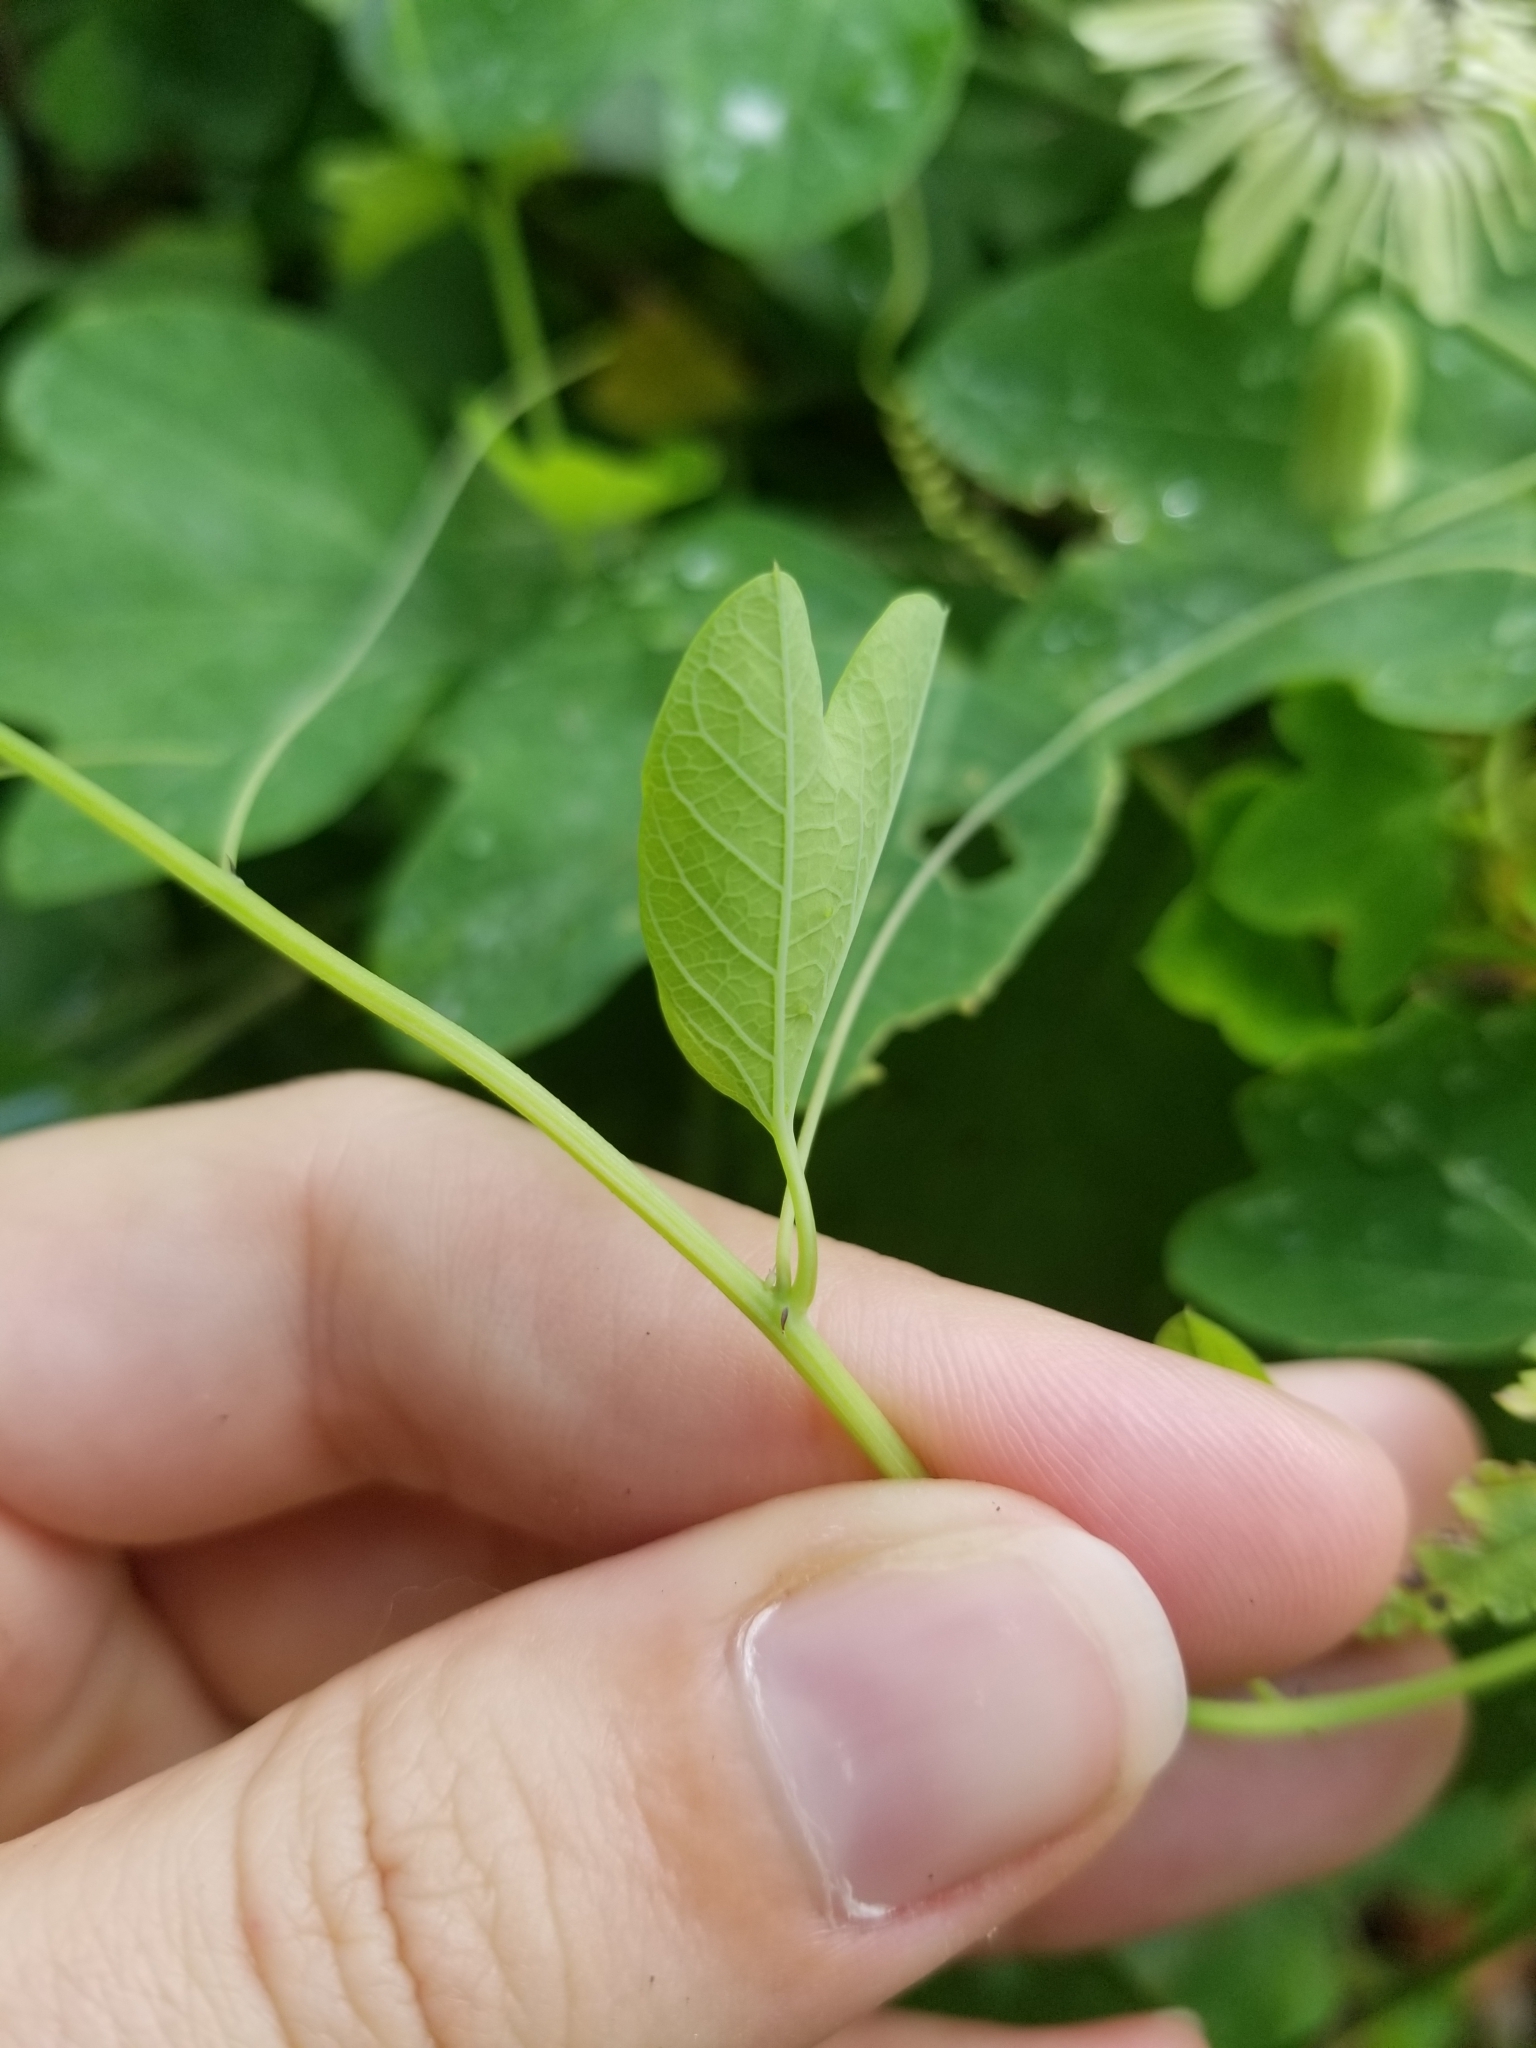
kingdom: Plantae
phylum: Tracheophyta
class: Magnoliopsida
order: Malpighiales
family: Passifloraceae
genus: Passiflora
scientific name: Passiflora lutea
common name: Yellow passionflower
